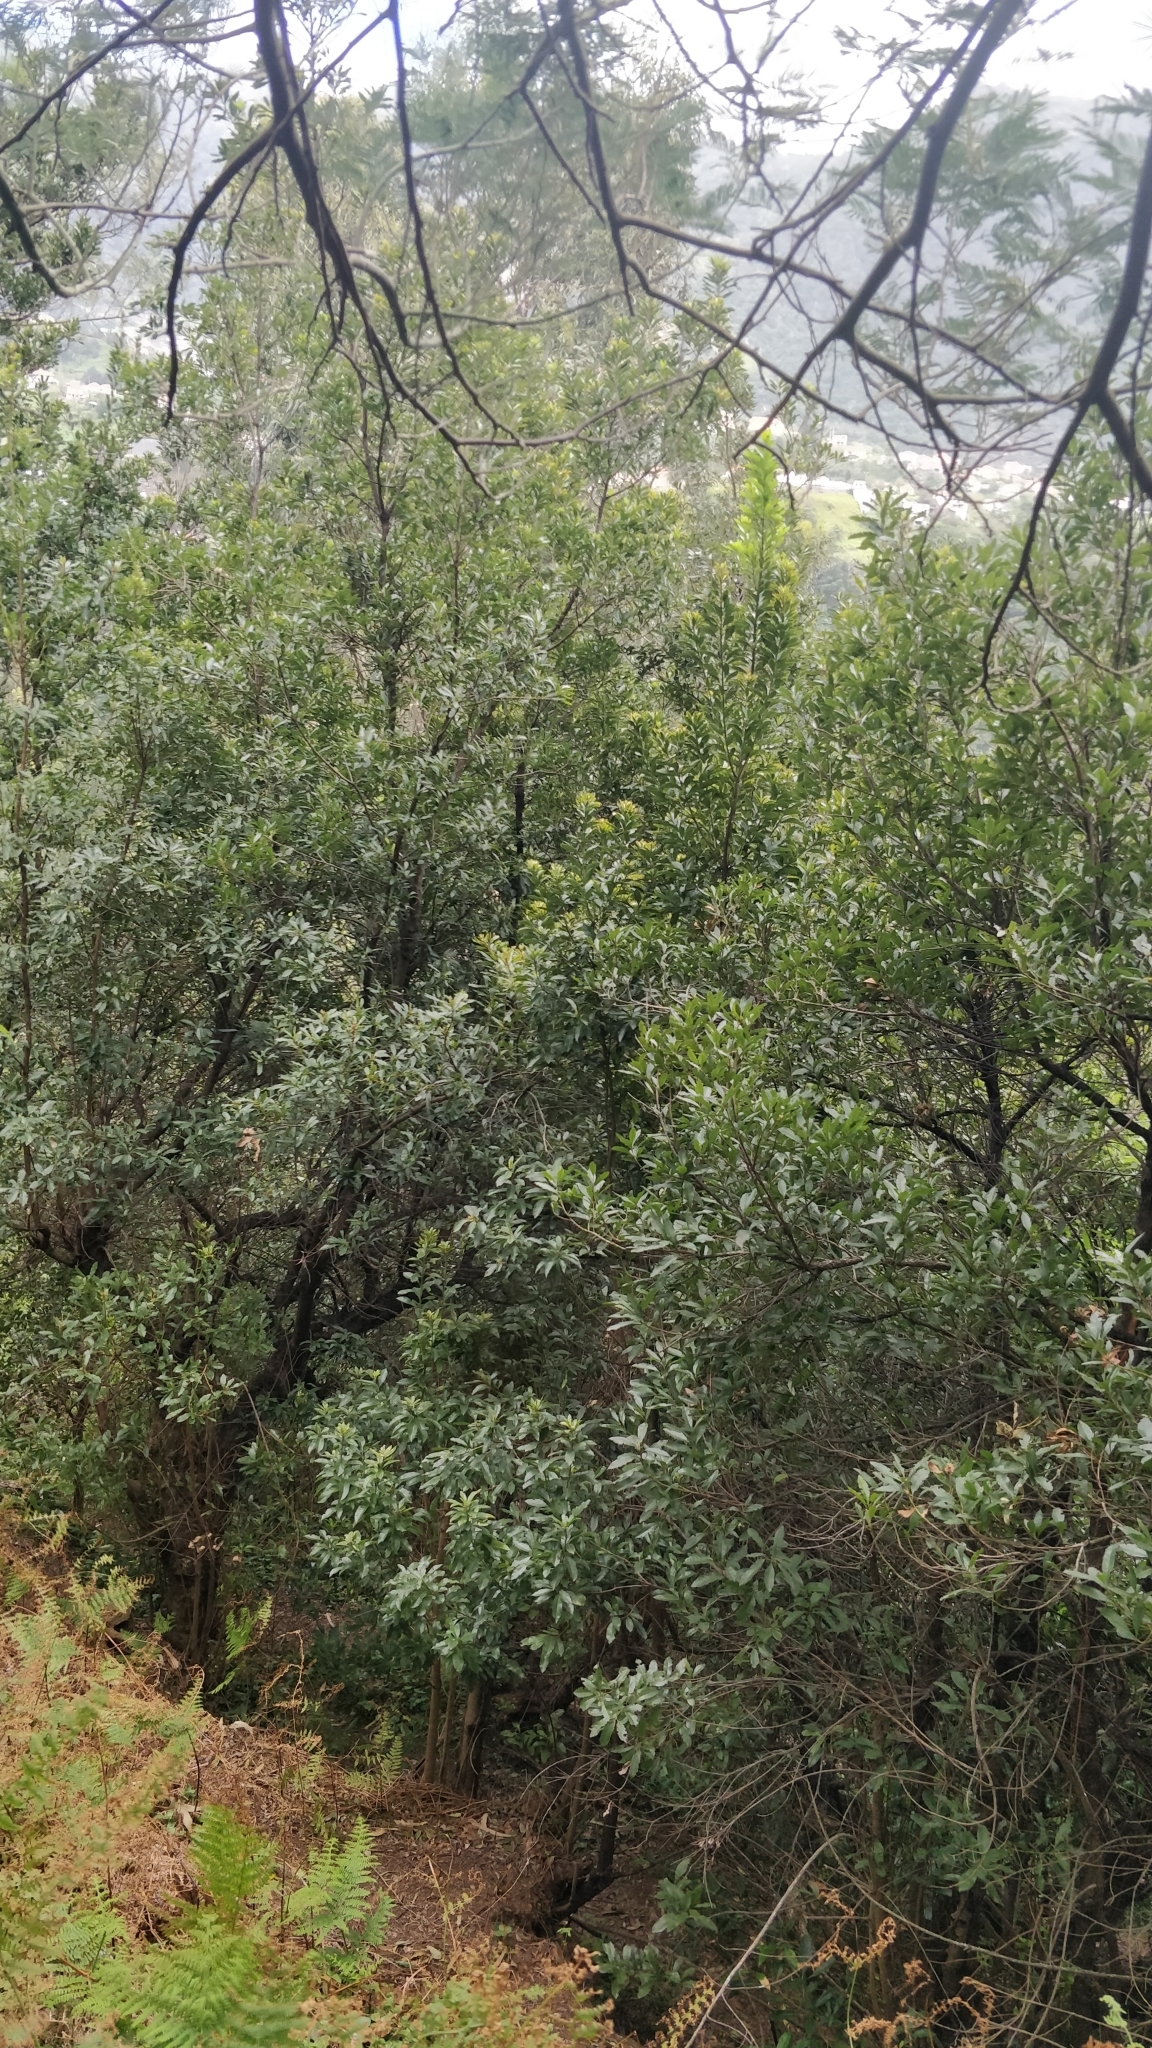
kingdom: Plantae
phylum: Tracheophyta
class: Magnoliopsida
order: Fagales
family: Myricaceae
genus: Morella
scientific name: Morella faya
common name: Firetree
